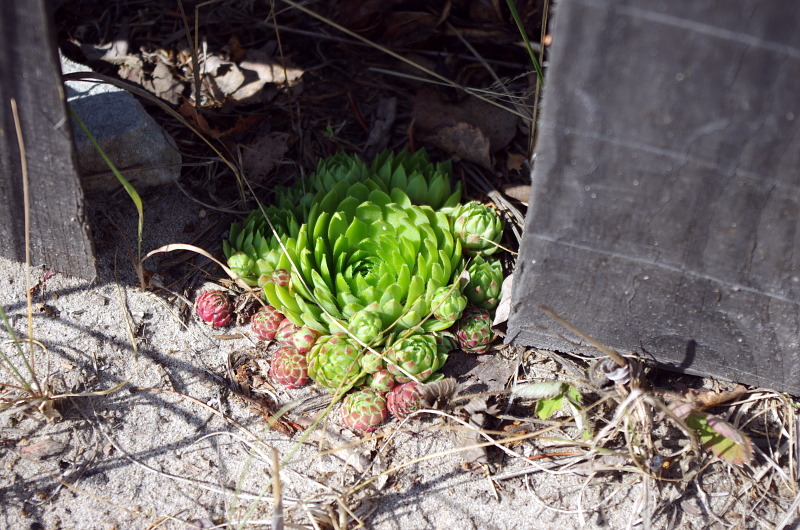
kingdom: Plantae
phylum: Tracheophyta
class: Magnoliopsida
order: Saxifragales
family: Crassulaceae
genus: Sempervivum
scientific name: Sempervivum globiferum
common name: Rolling hen-and-chicks
